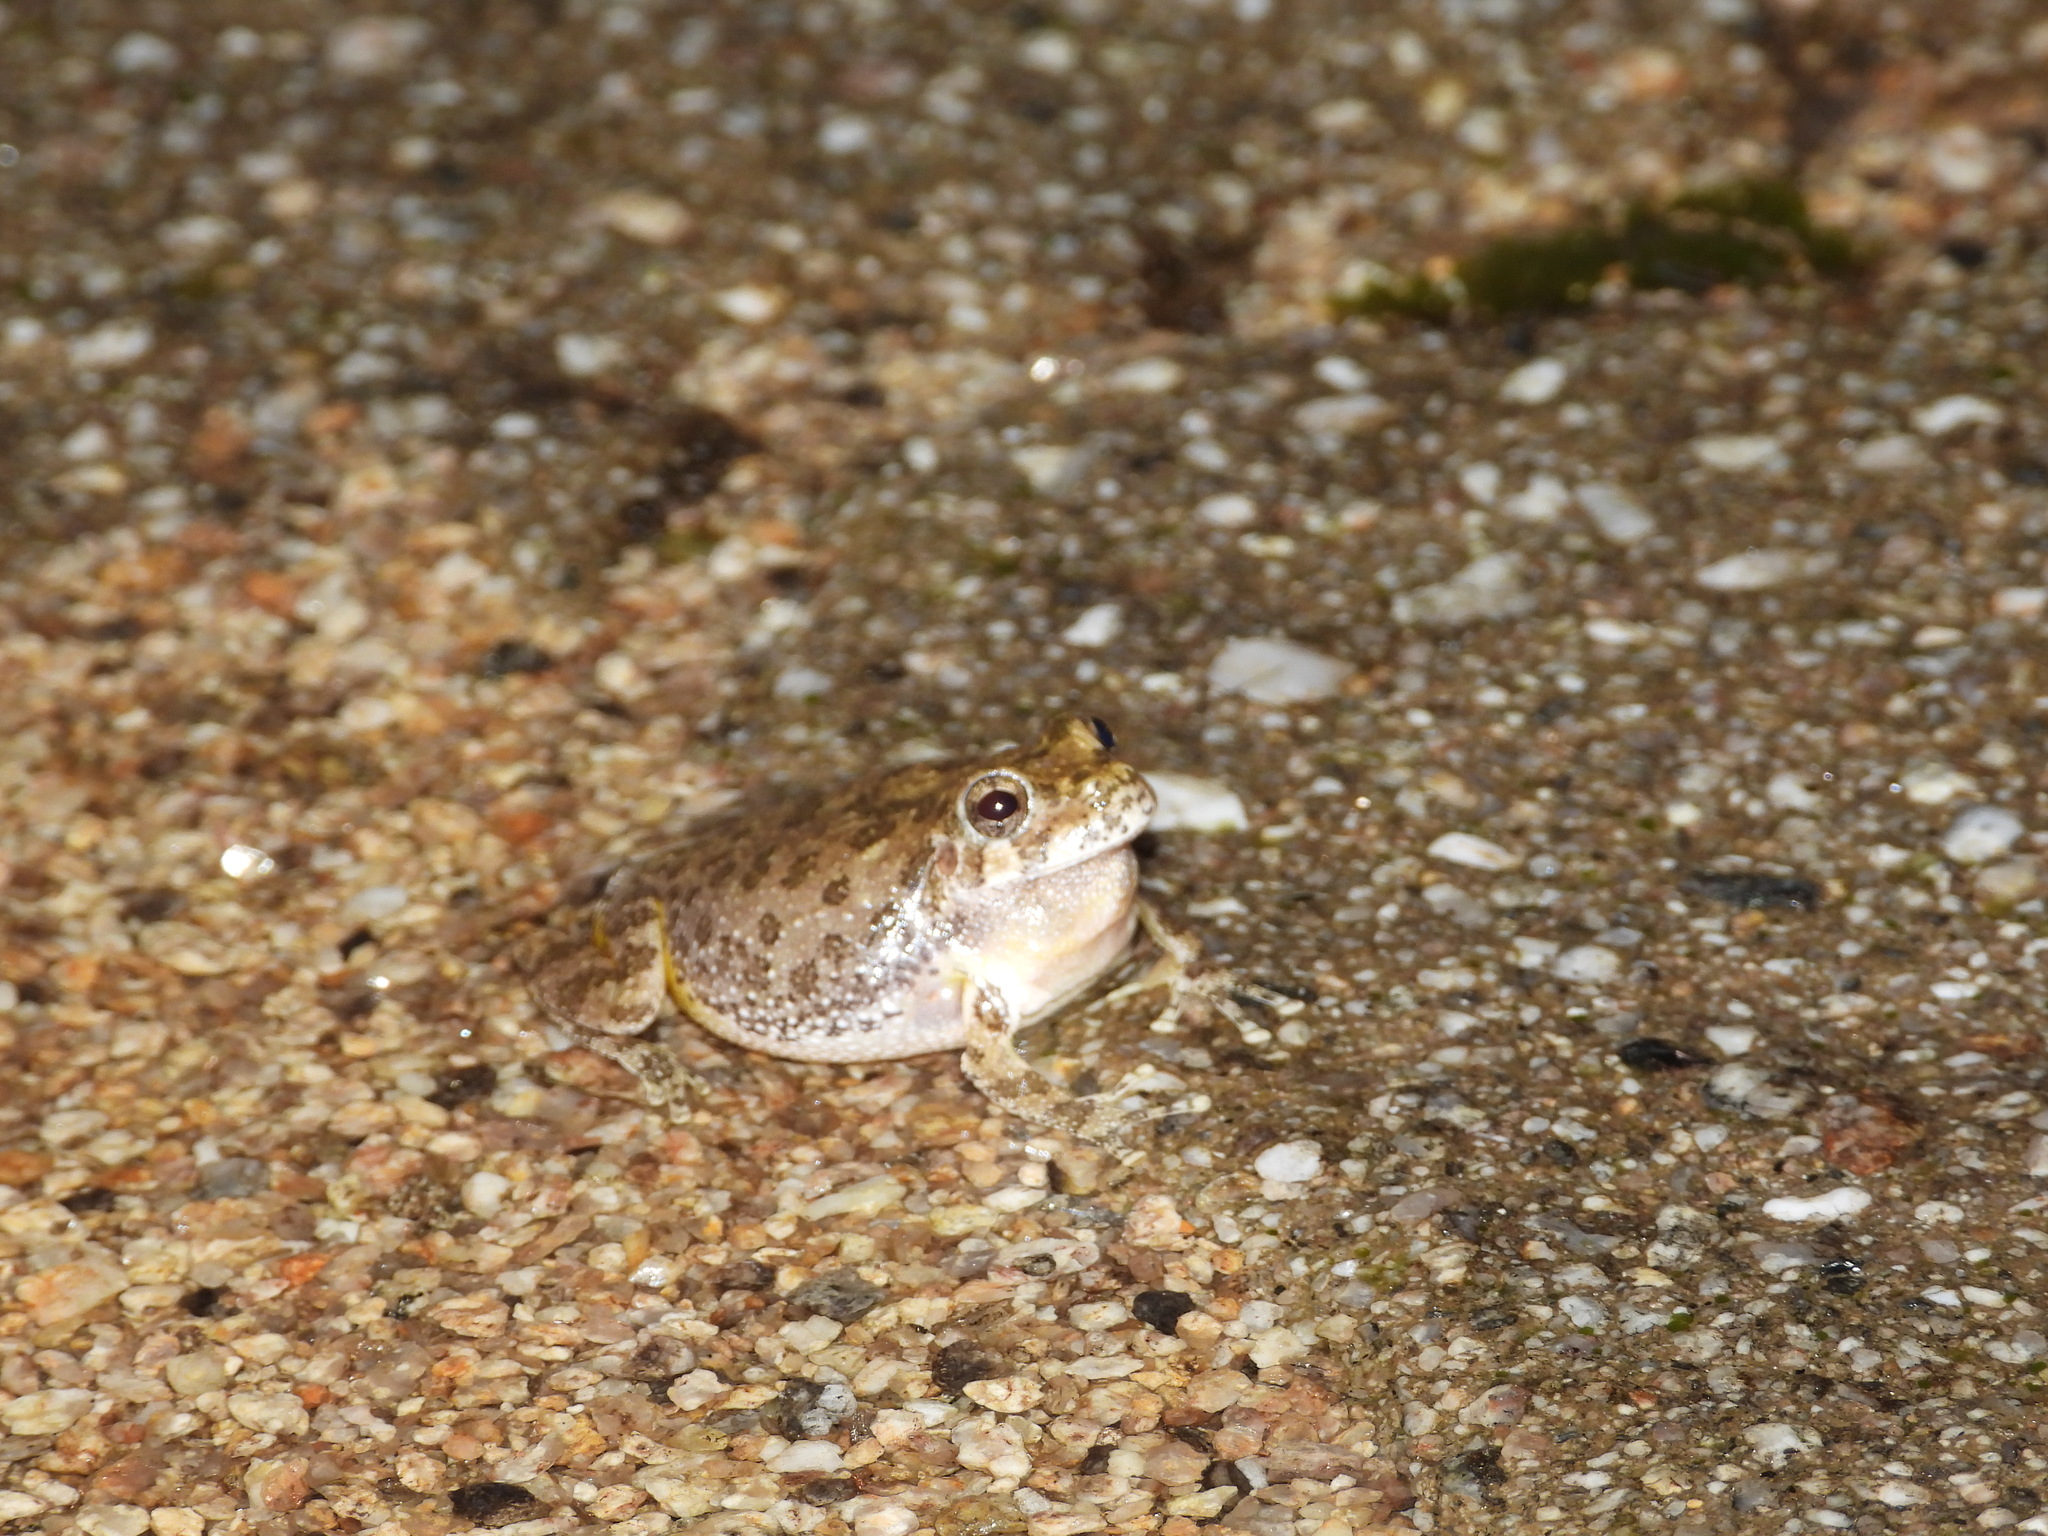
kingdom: Animalia
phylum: Chordata
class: Amphibia
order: Anura
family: Hylidae
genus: Dryophytes
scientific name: Dryophytes arenicolor
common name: Canyon treefrog
